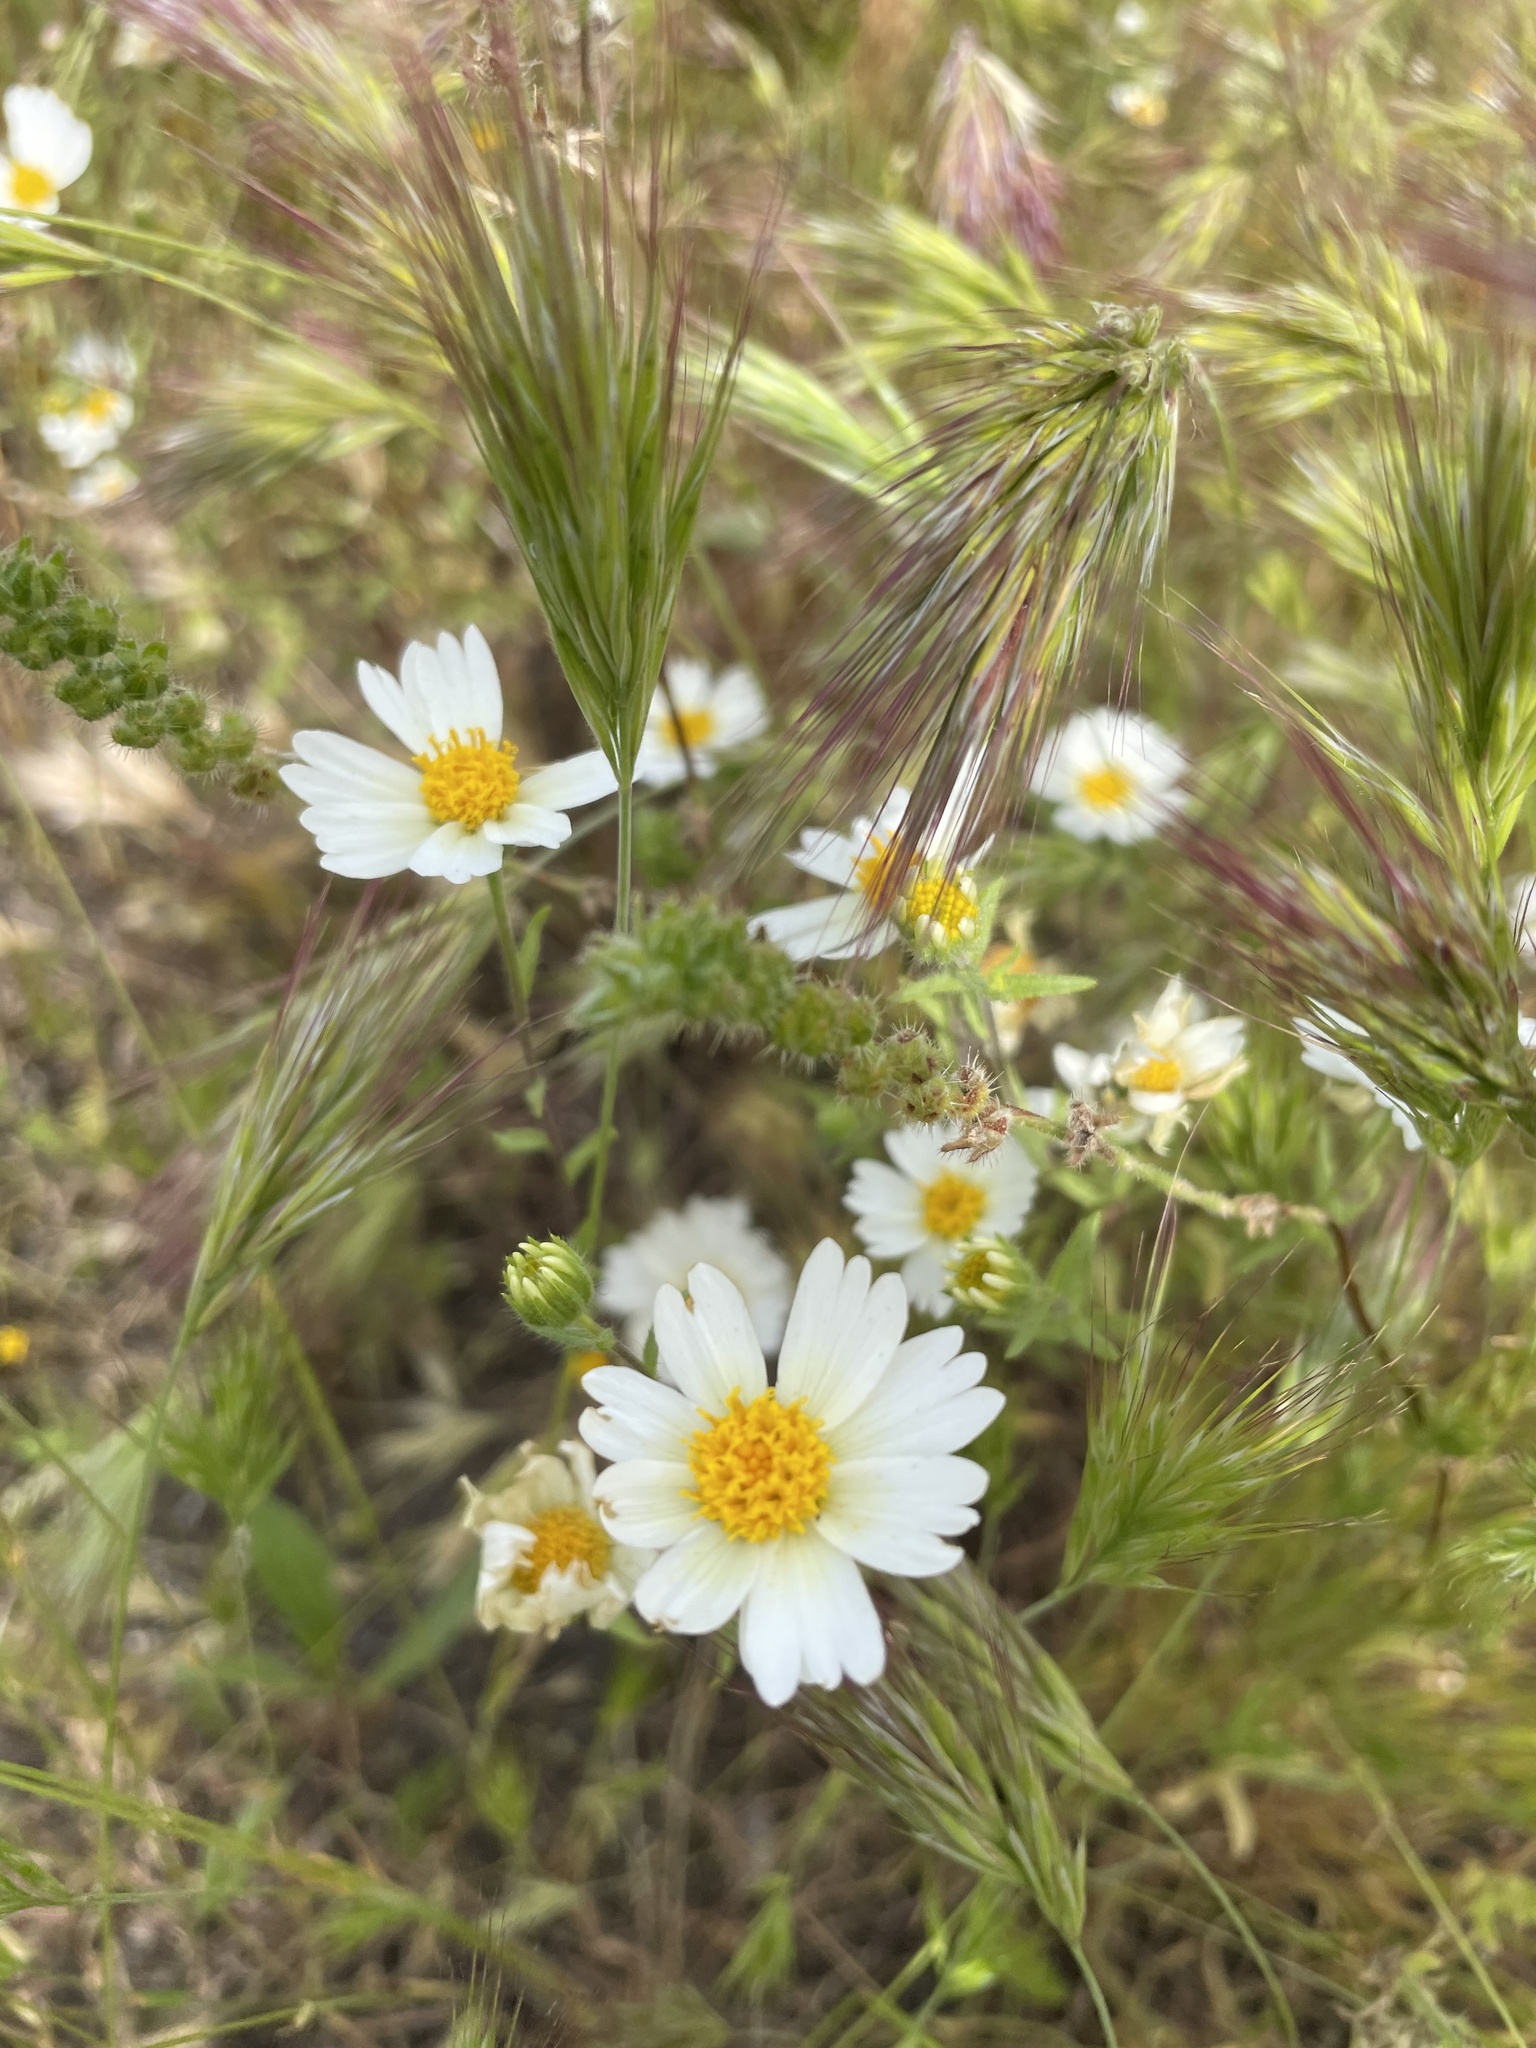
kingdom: Plantae
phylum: Tracheophyta
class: Magnoliopsida
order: Asterales
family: Asteraceae
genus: Layia
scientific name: Layia pentachaeta
